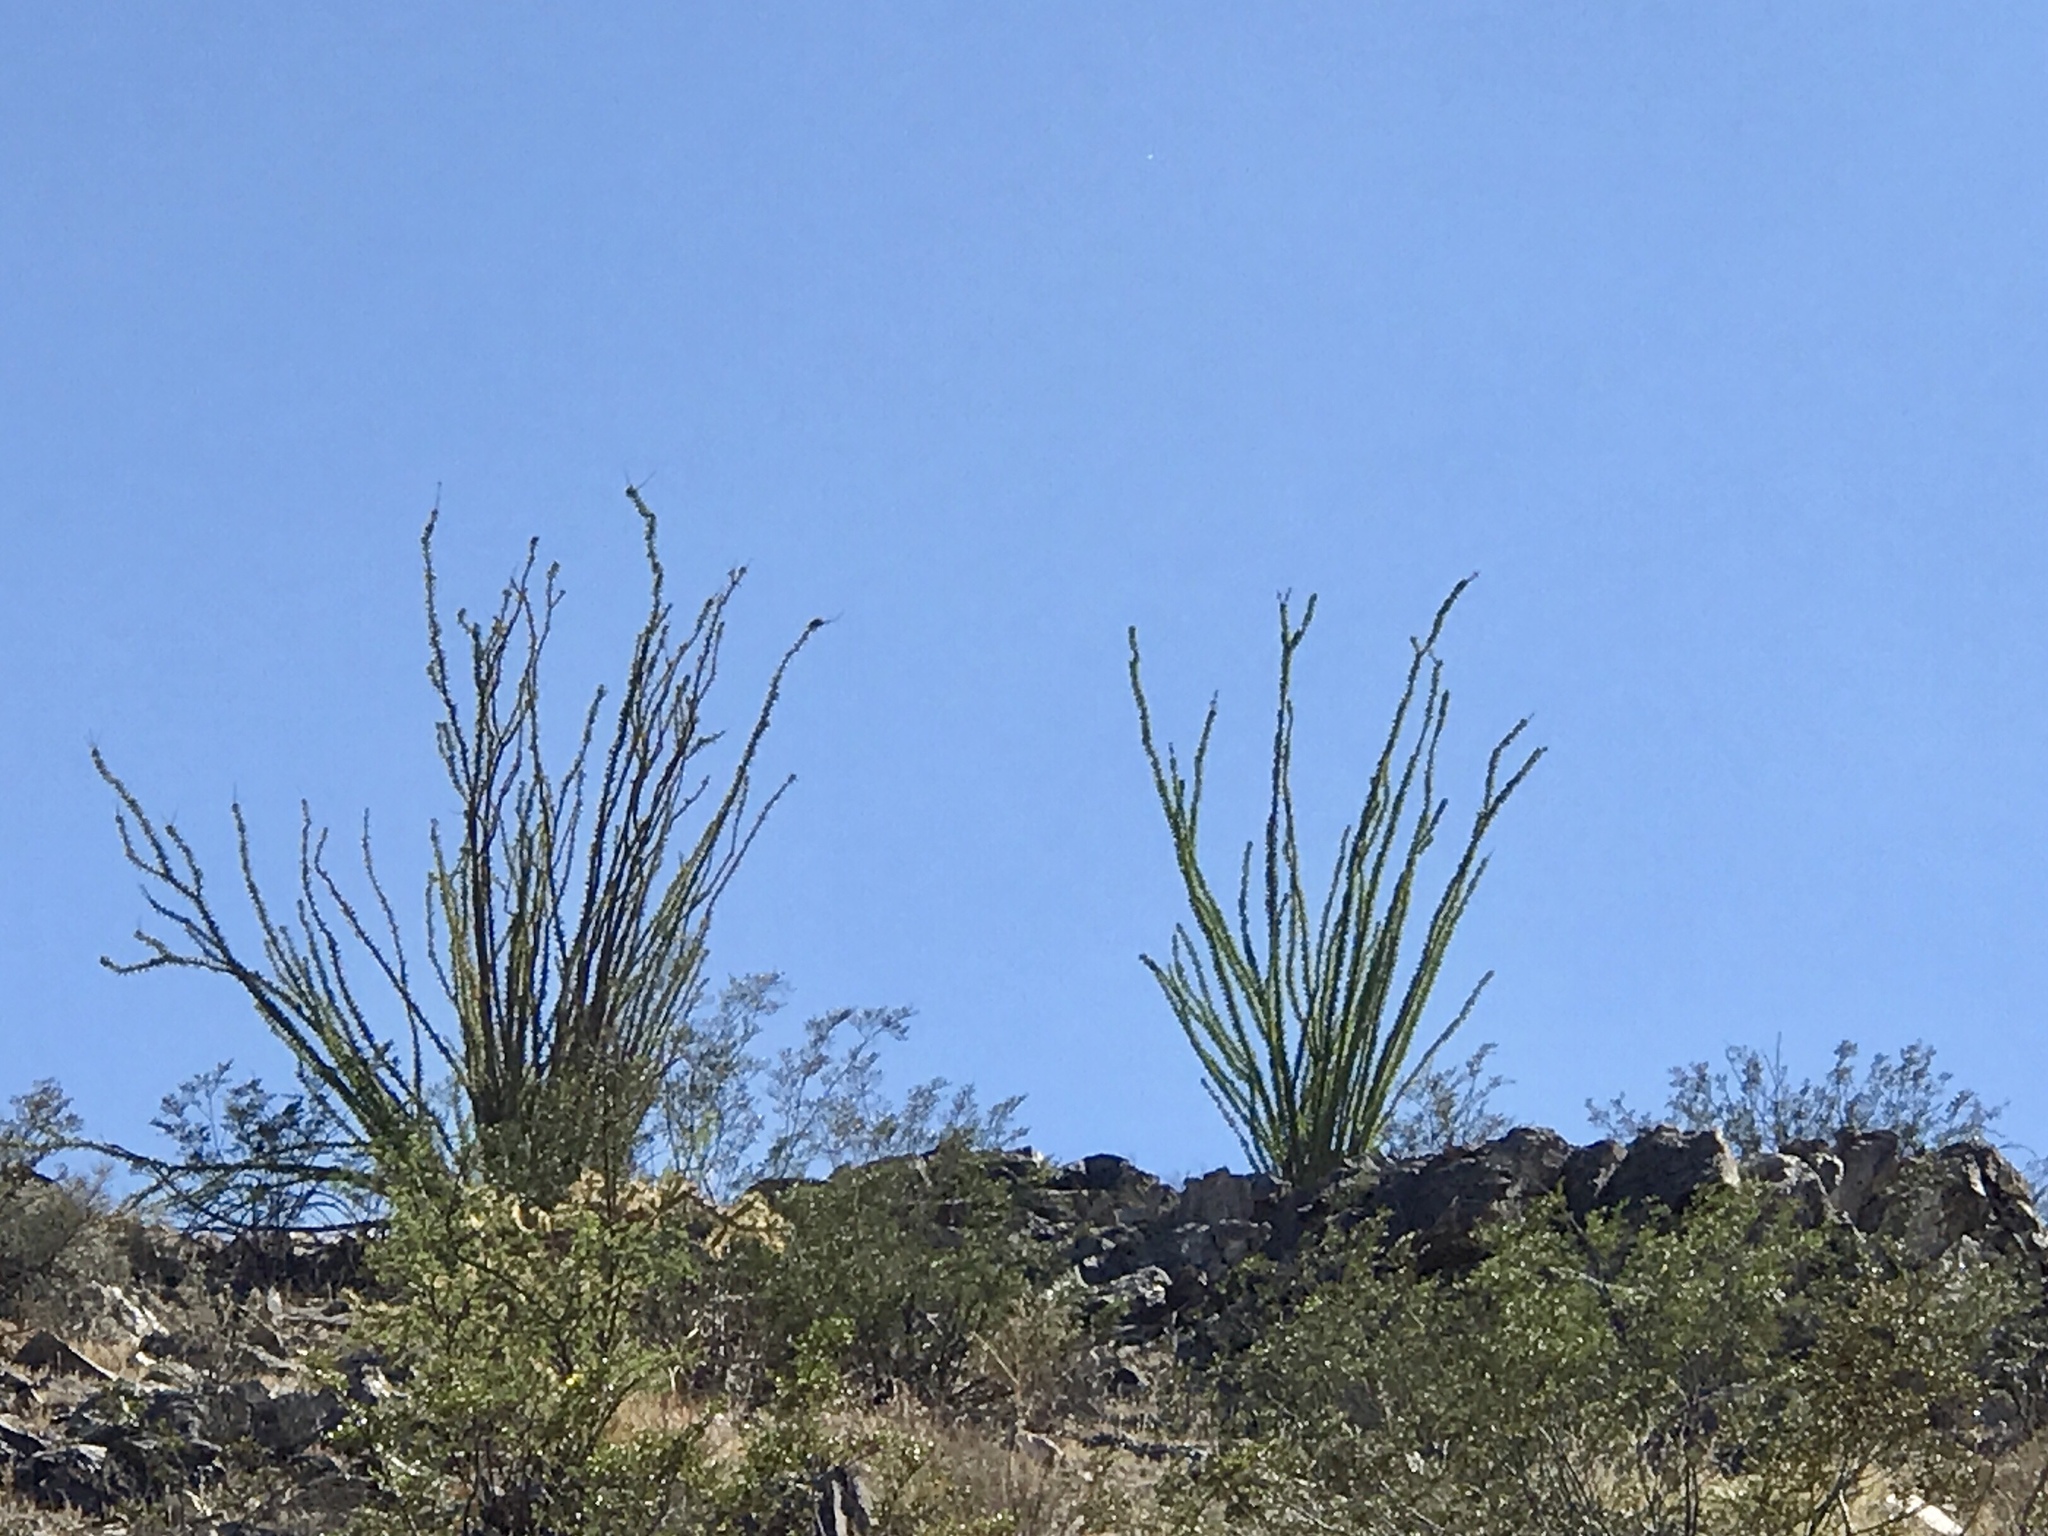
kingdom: Plantae
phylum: Tracheophyta
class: Magnoliopsida
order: Ericales
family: Fouquieriaceae
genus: Fouquieria
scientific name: Fouquieria splendens
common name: Vine-cactus
